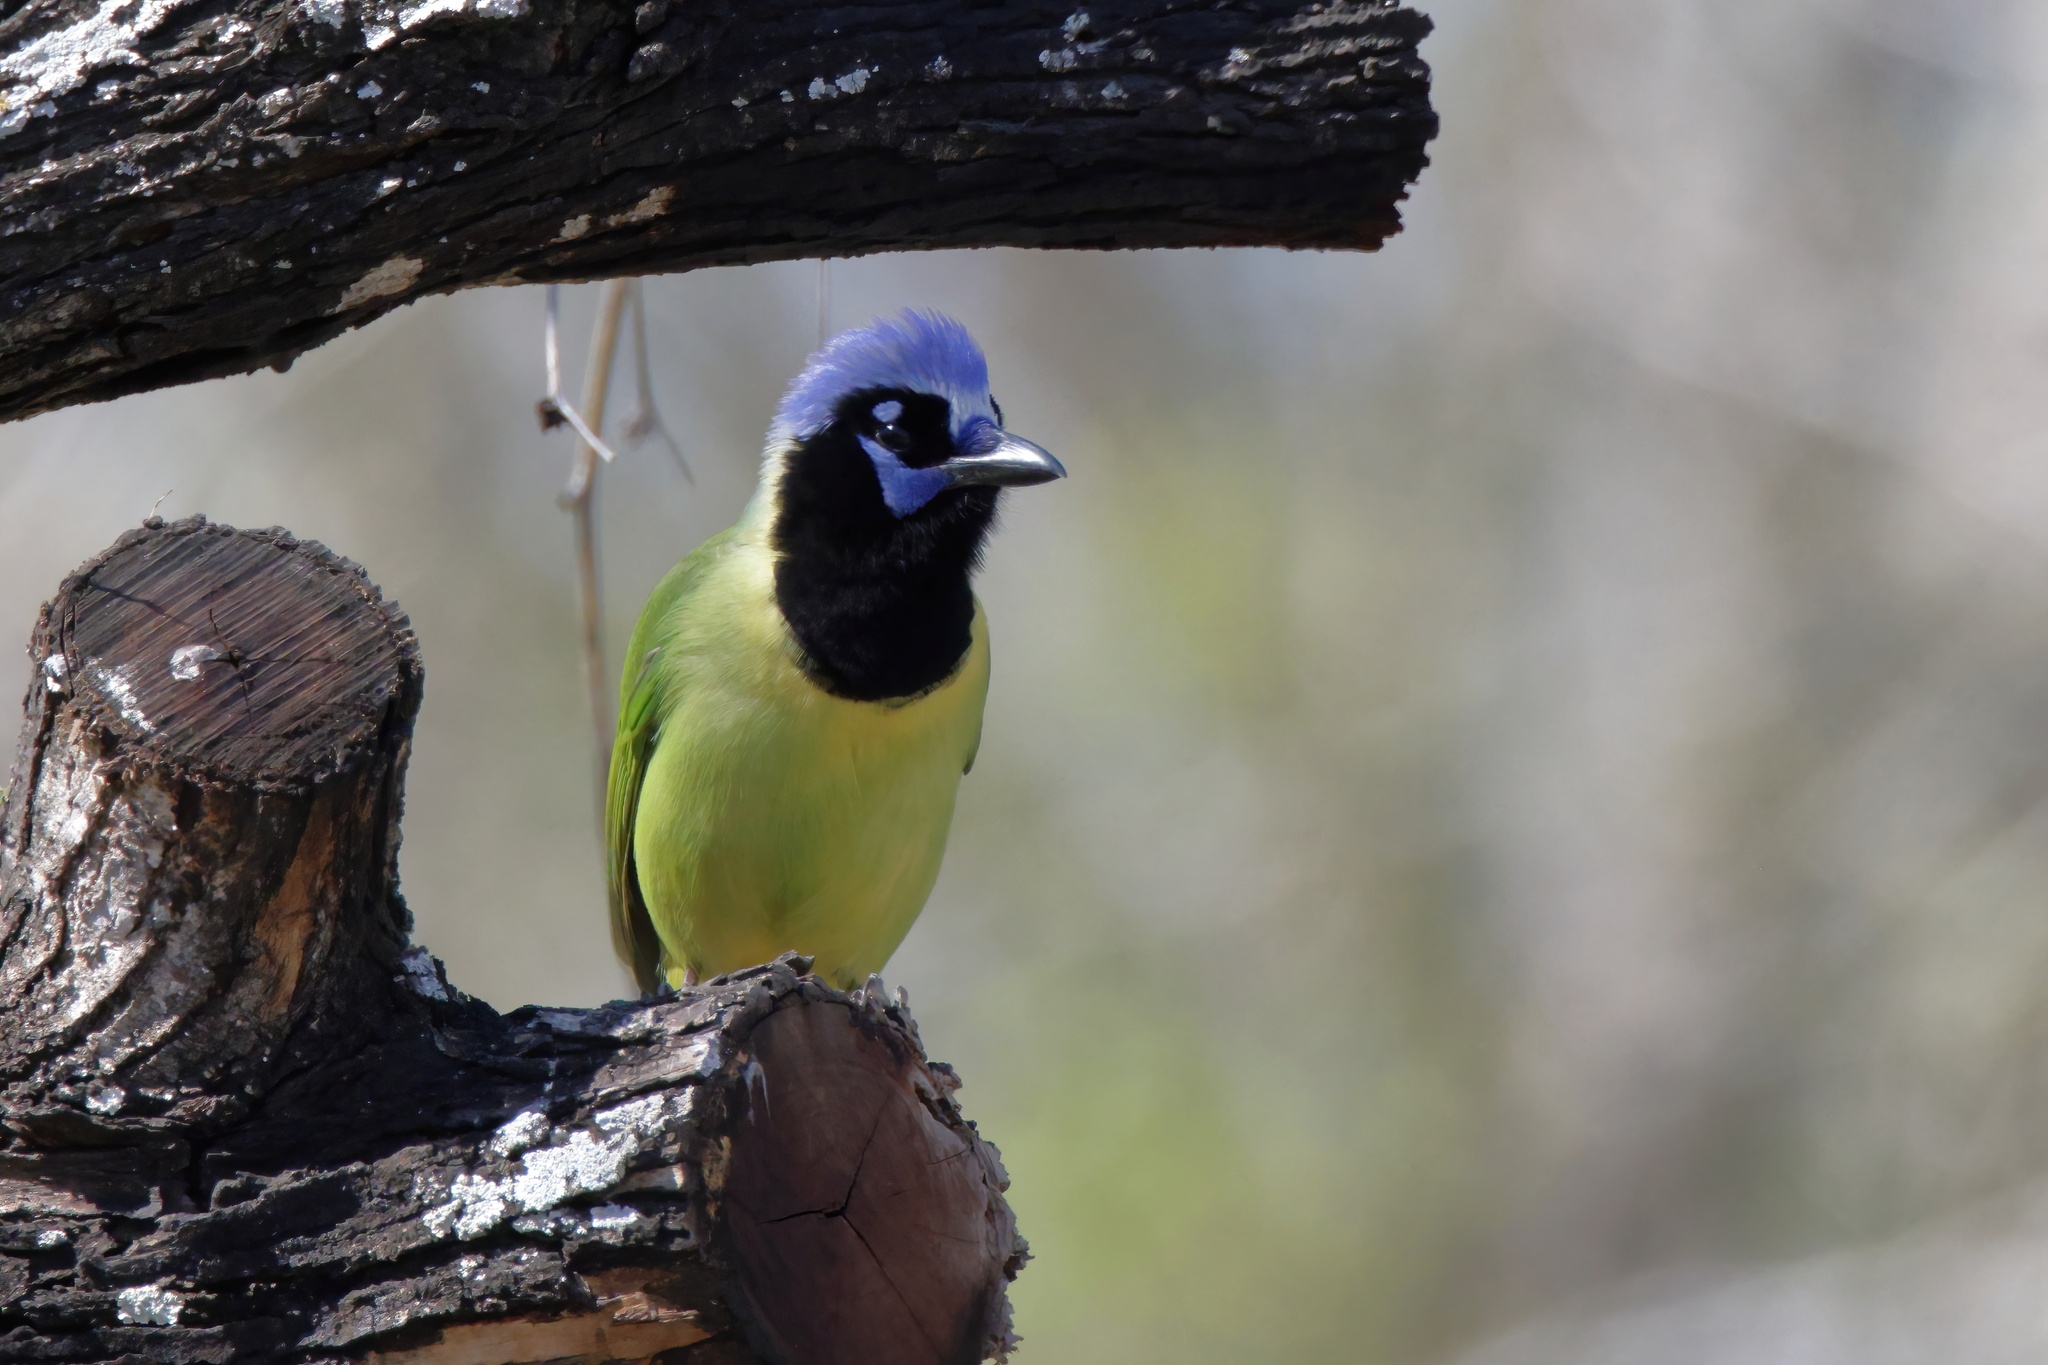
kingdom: Animalia
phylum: Chordata
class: Aves
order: Passeriformes
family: Corvidae
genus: Cyanocorax
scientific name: Cyanocorax yncas
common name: Green jay
